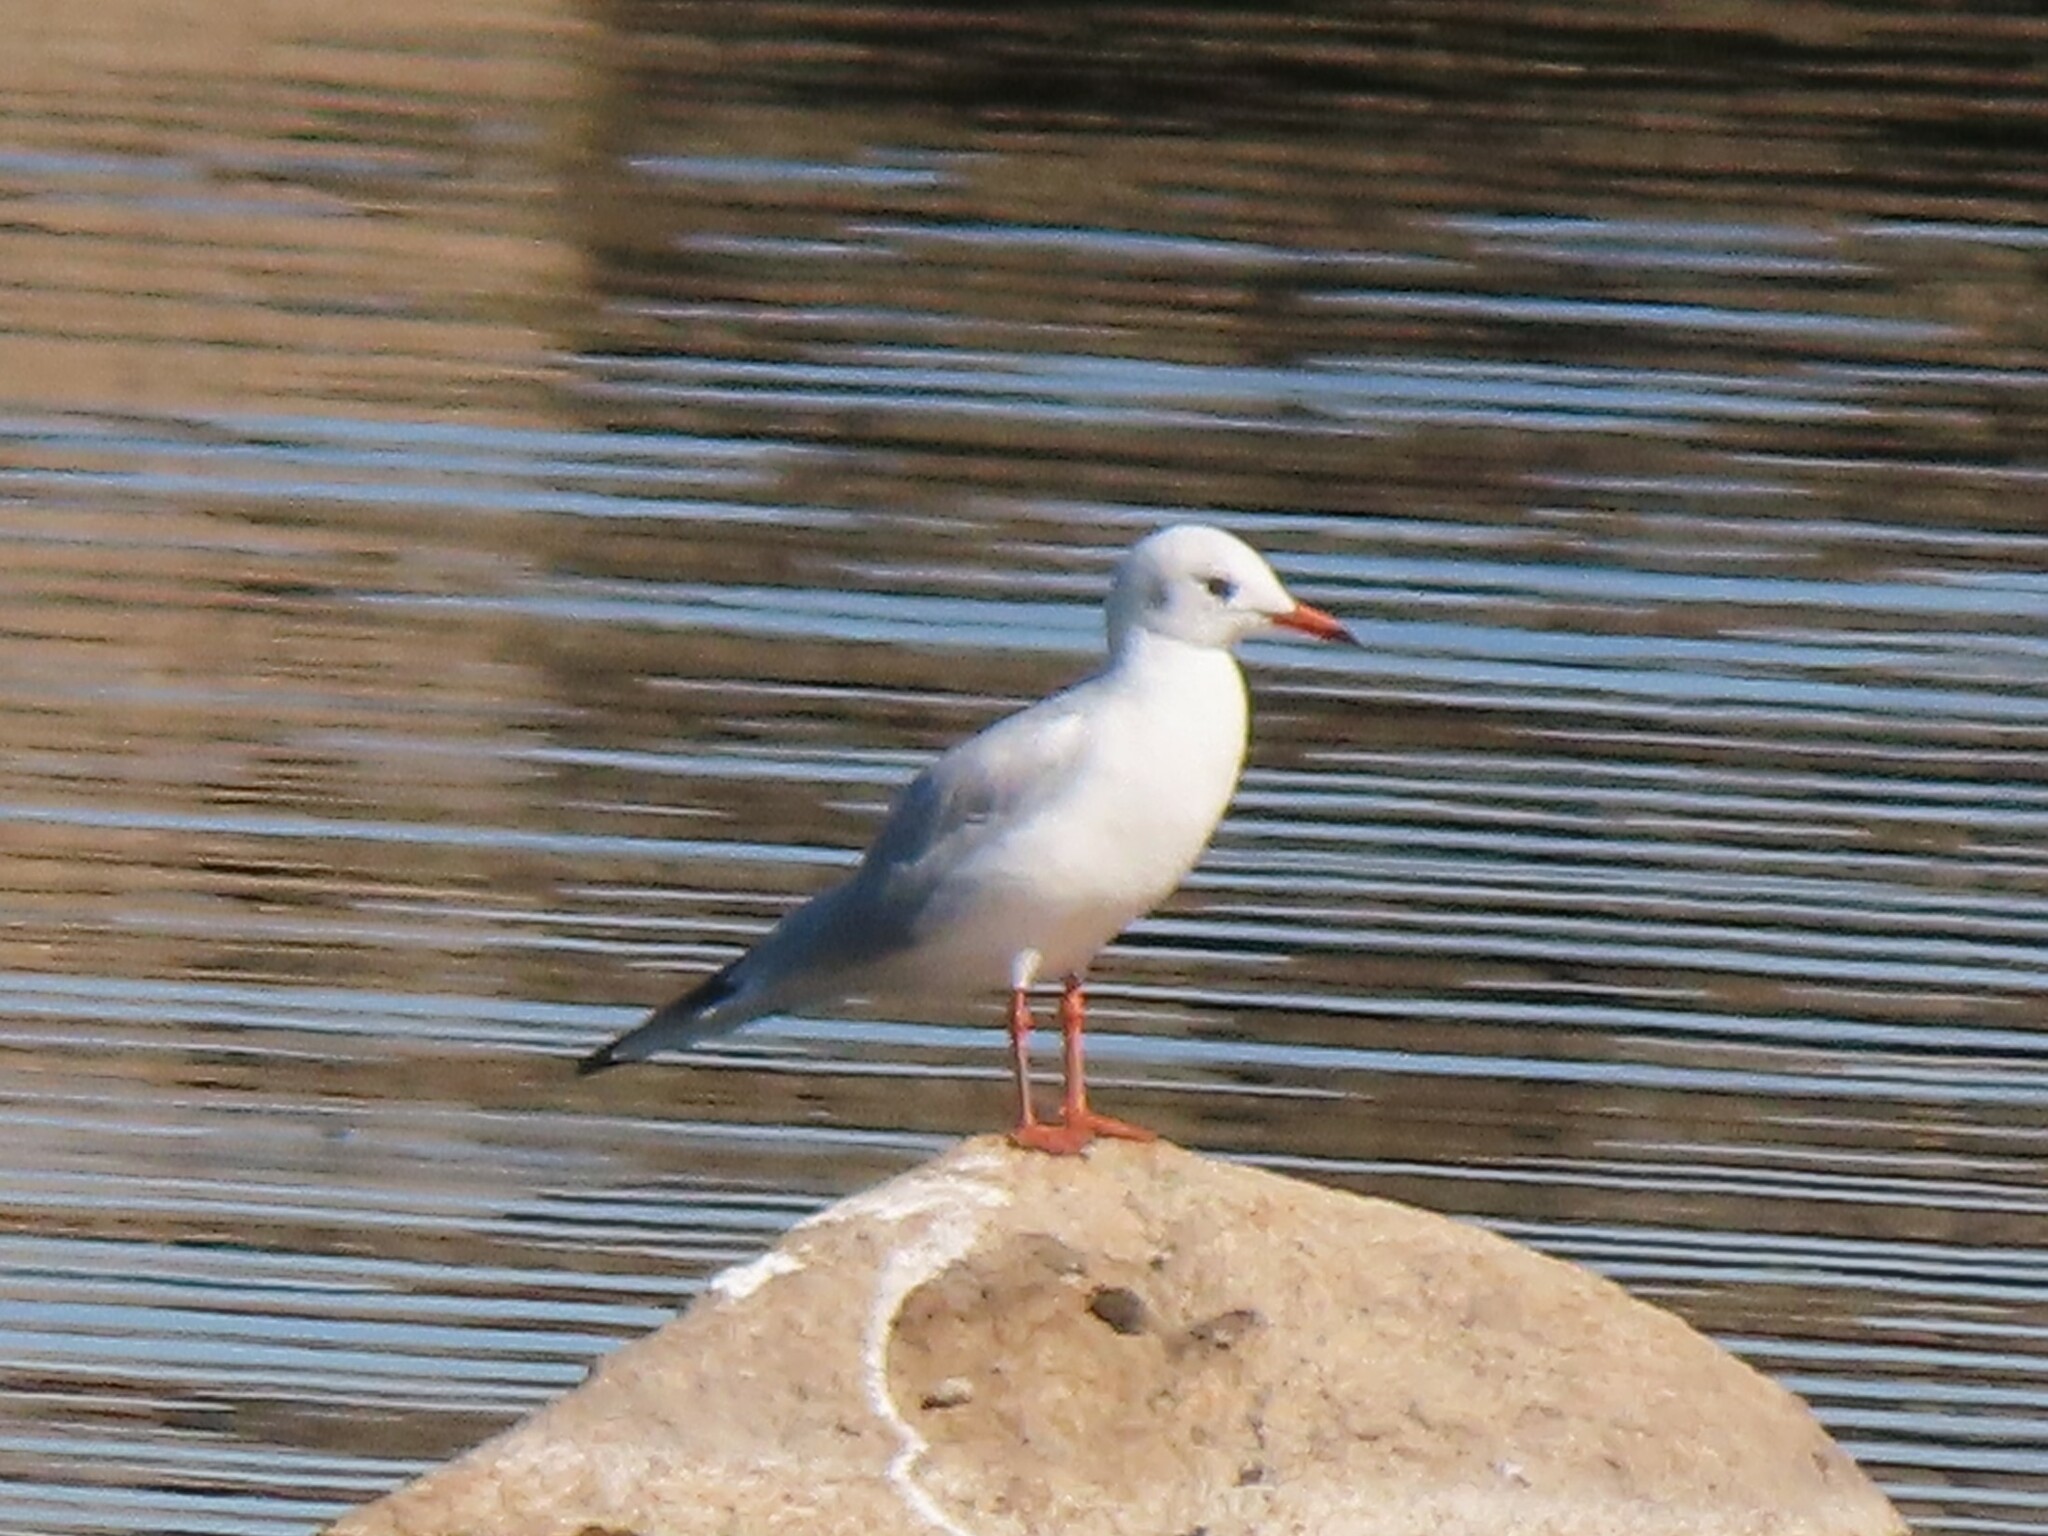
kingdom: Animalia
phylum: Chordata
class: Aves
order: Charadriiformes
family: Laridae
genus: Chroicocephalus
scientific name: Chroicocephalus ridibundus
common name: Black-headed gull
